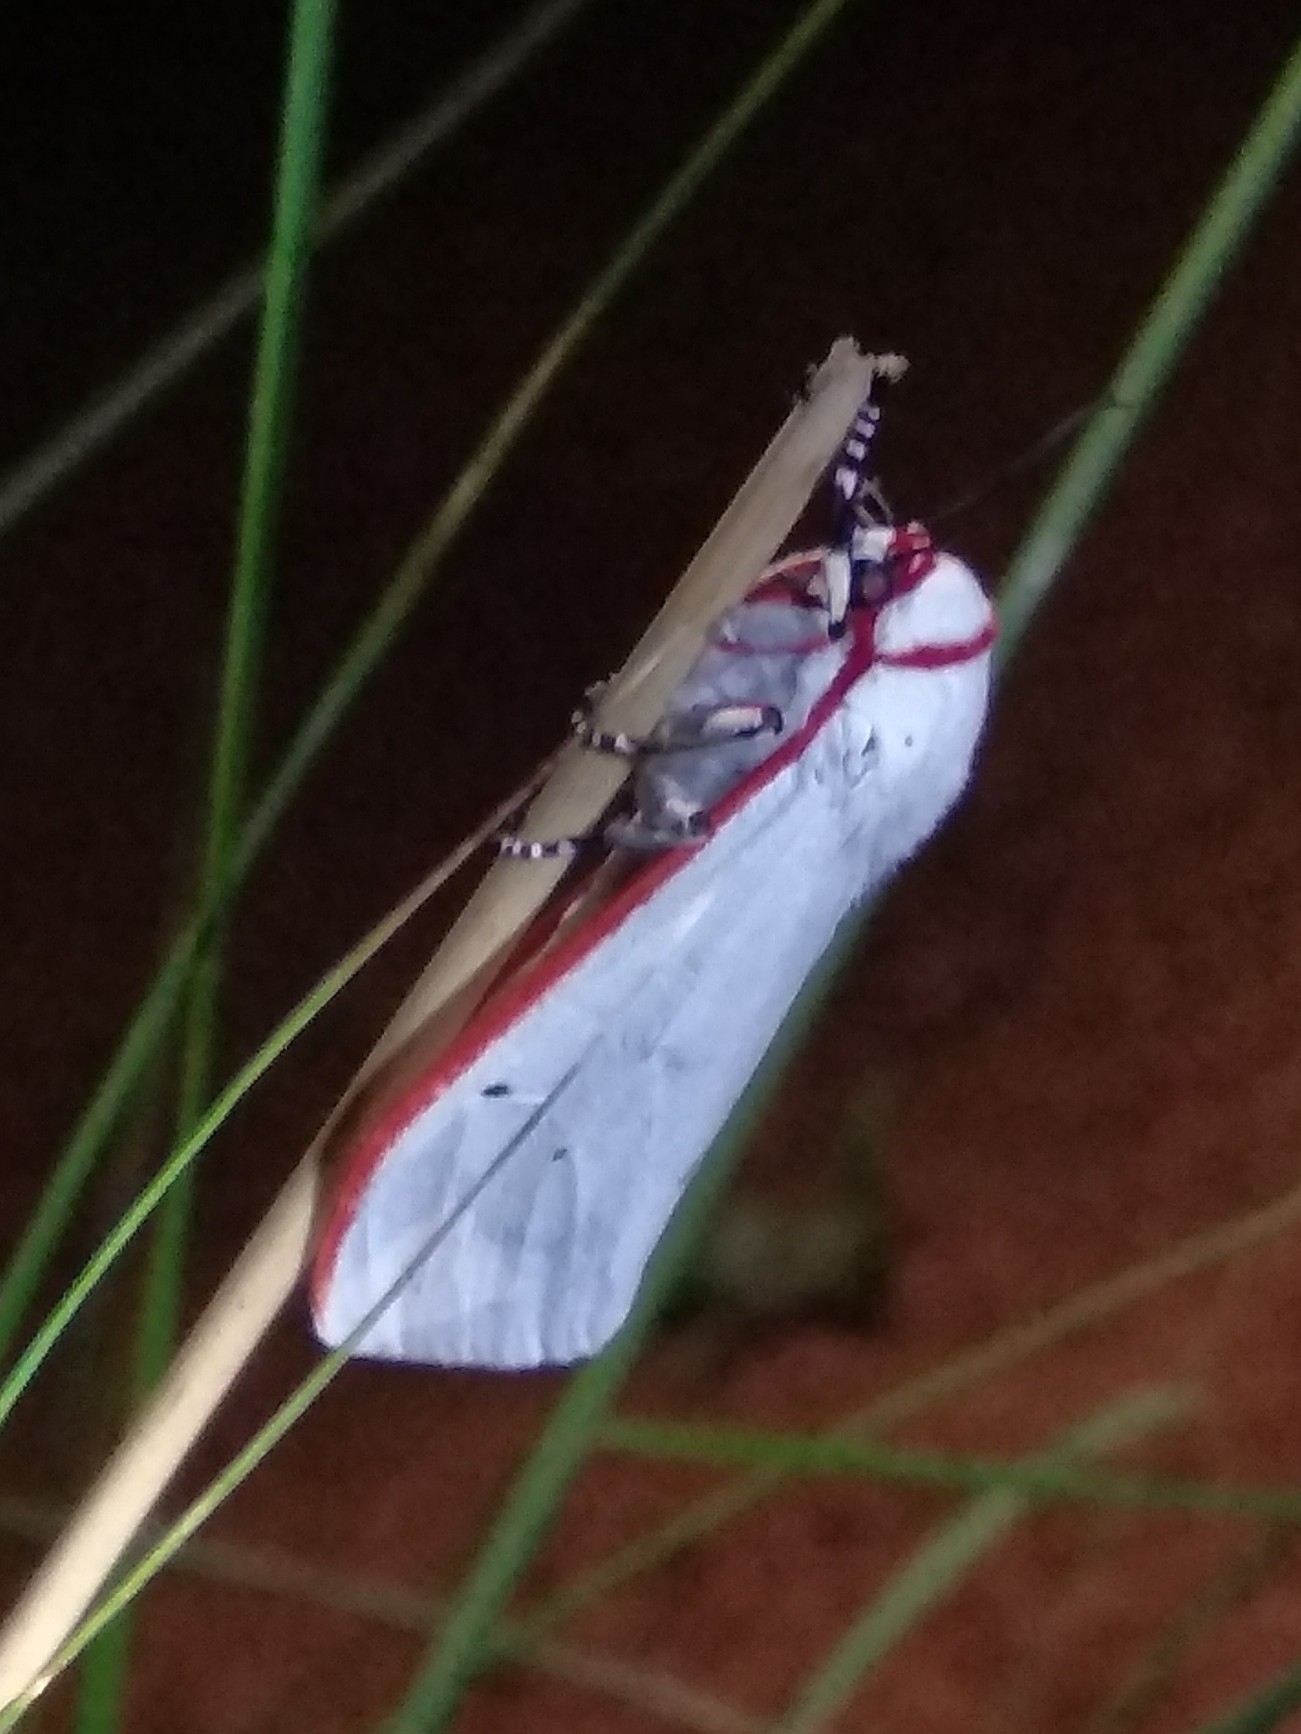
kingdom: Animalia
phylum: Arthropoda
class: Insecta
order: Lepidoptera
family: Erebidae
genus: Aloa
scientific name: Aloa lactinea
